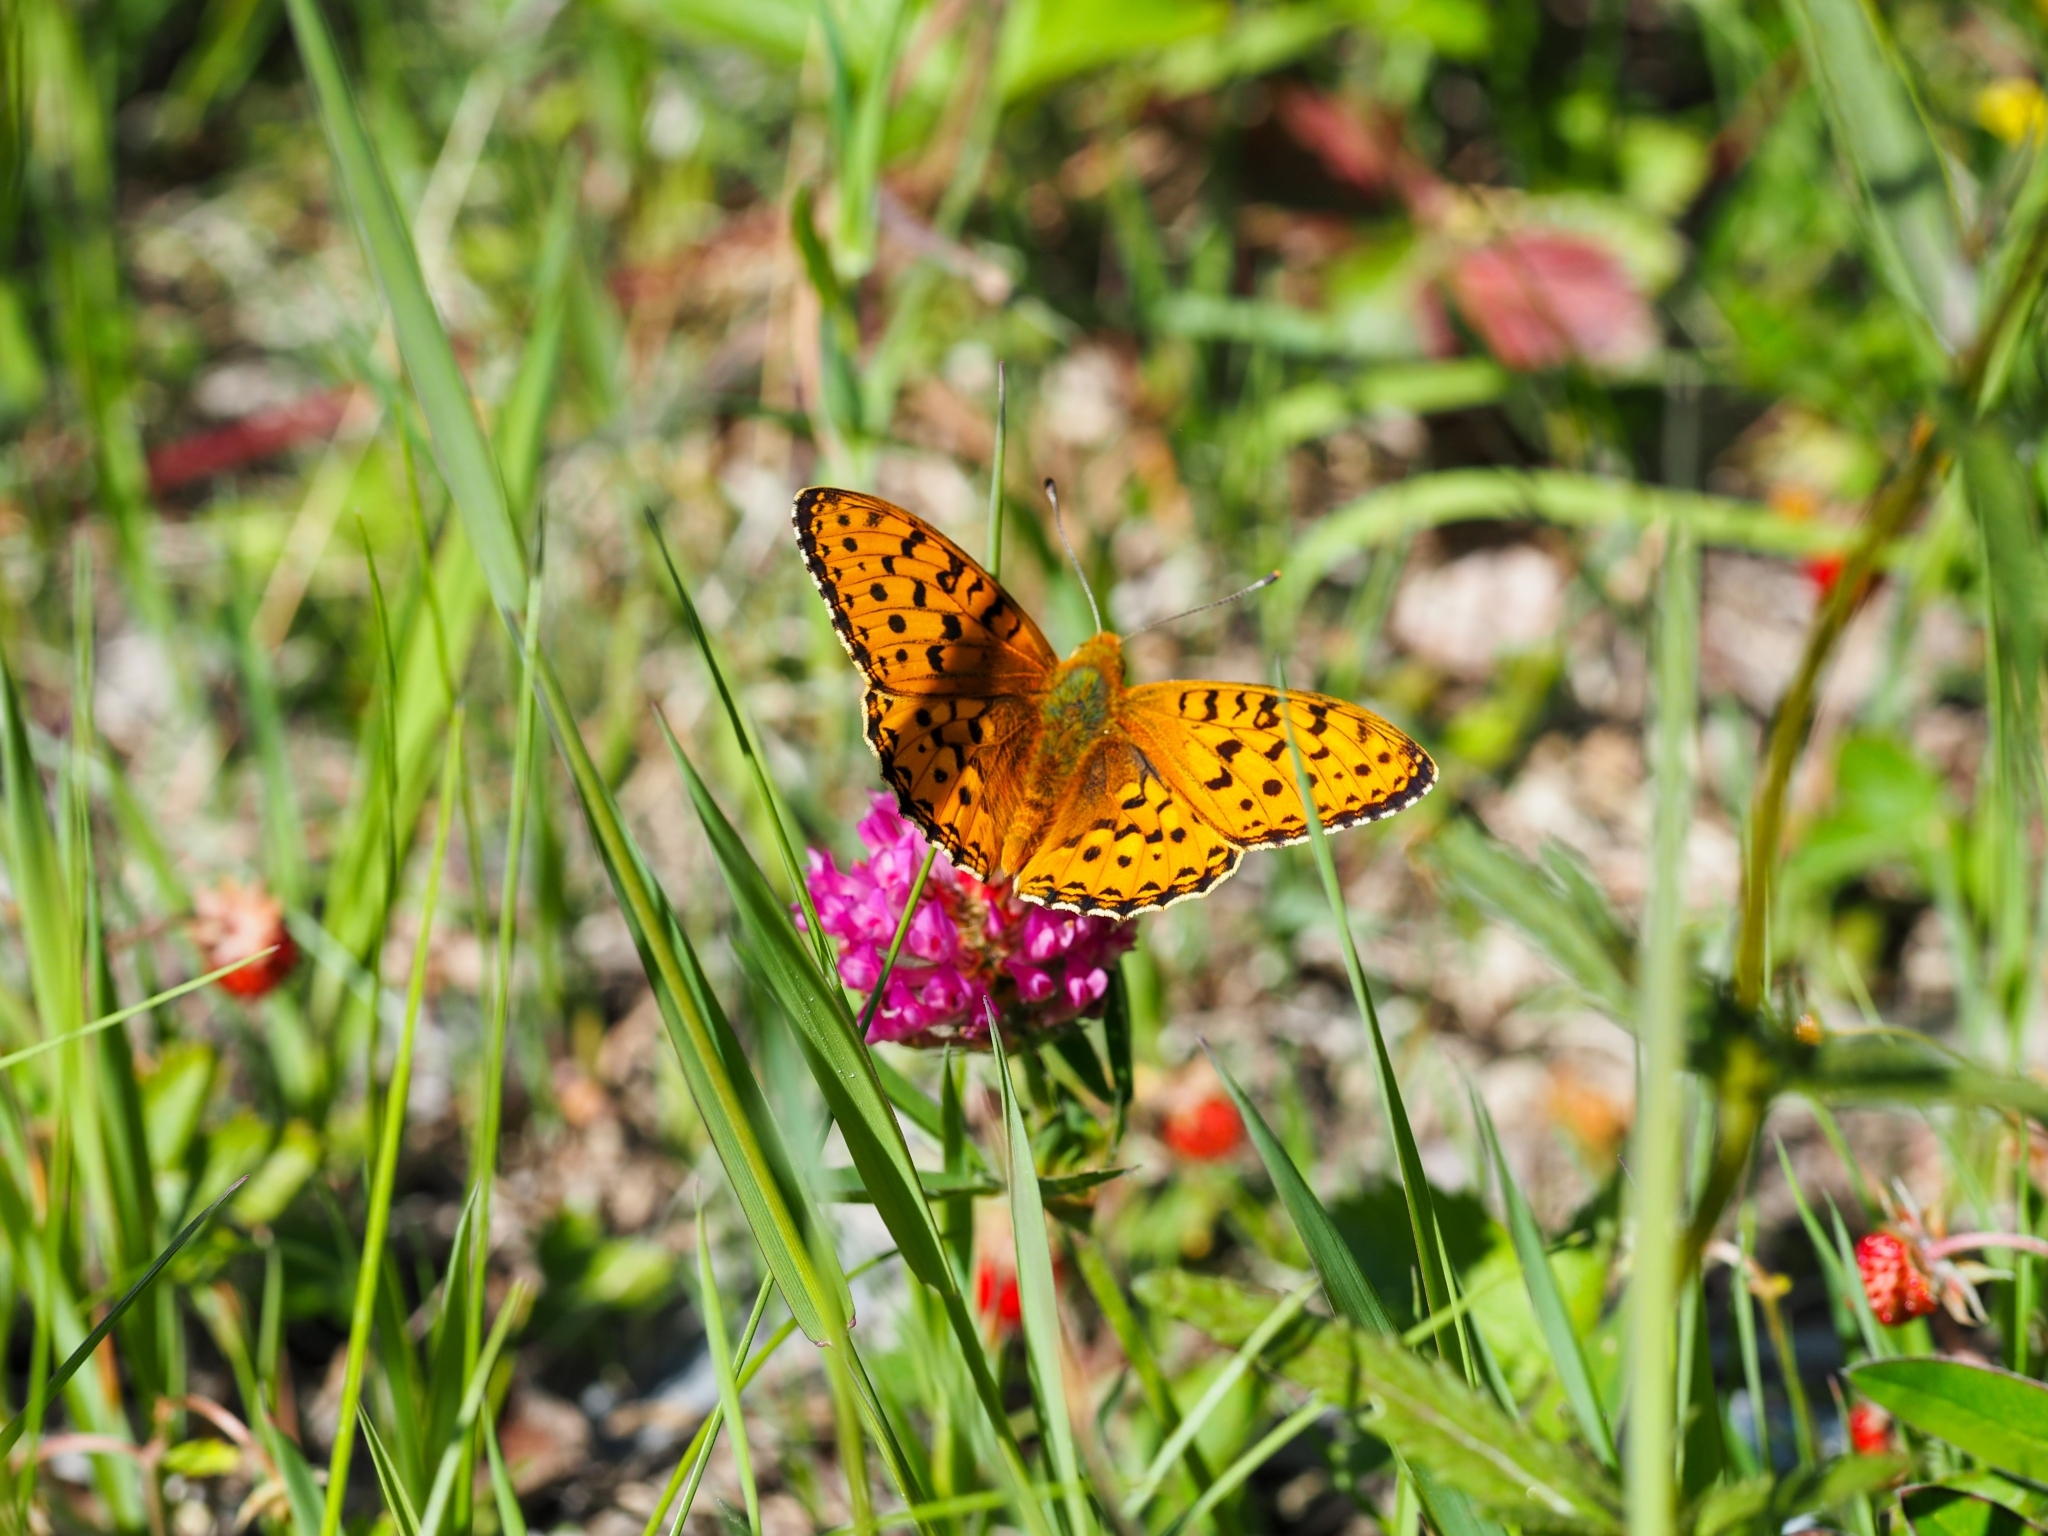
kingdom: Animalia
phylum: Arthropoda
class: Insecta
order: Lepidoptera
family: Nymphalidae
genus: Speyeria
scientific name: Speyeria aglaja
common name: Dark green fritillary
